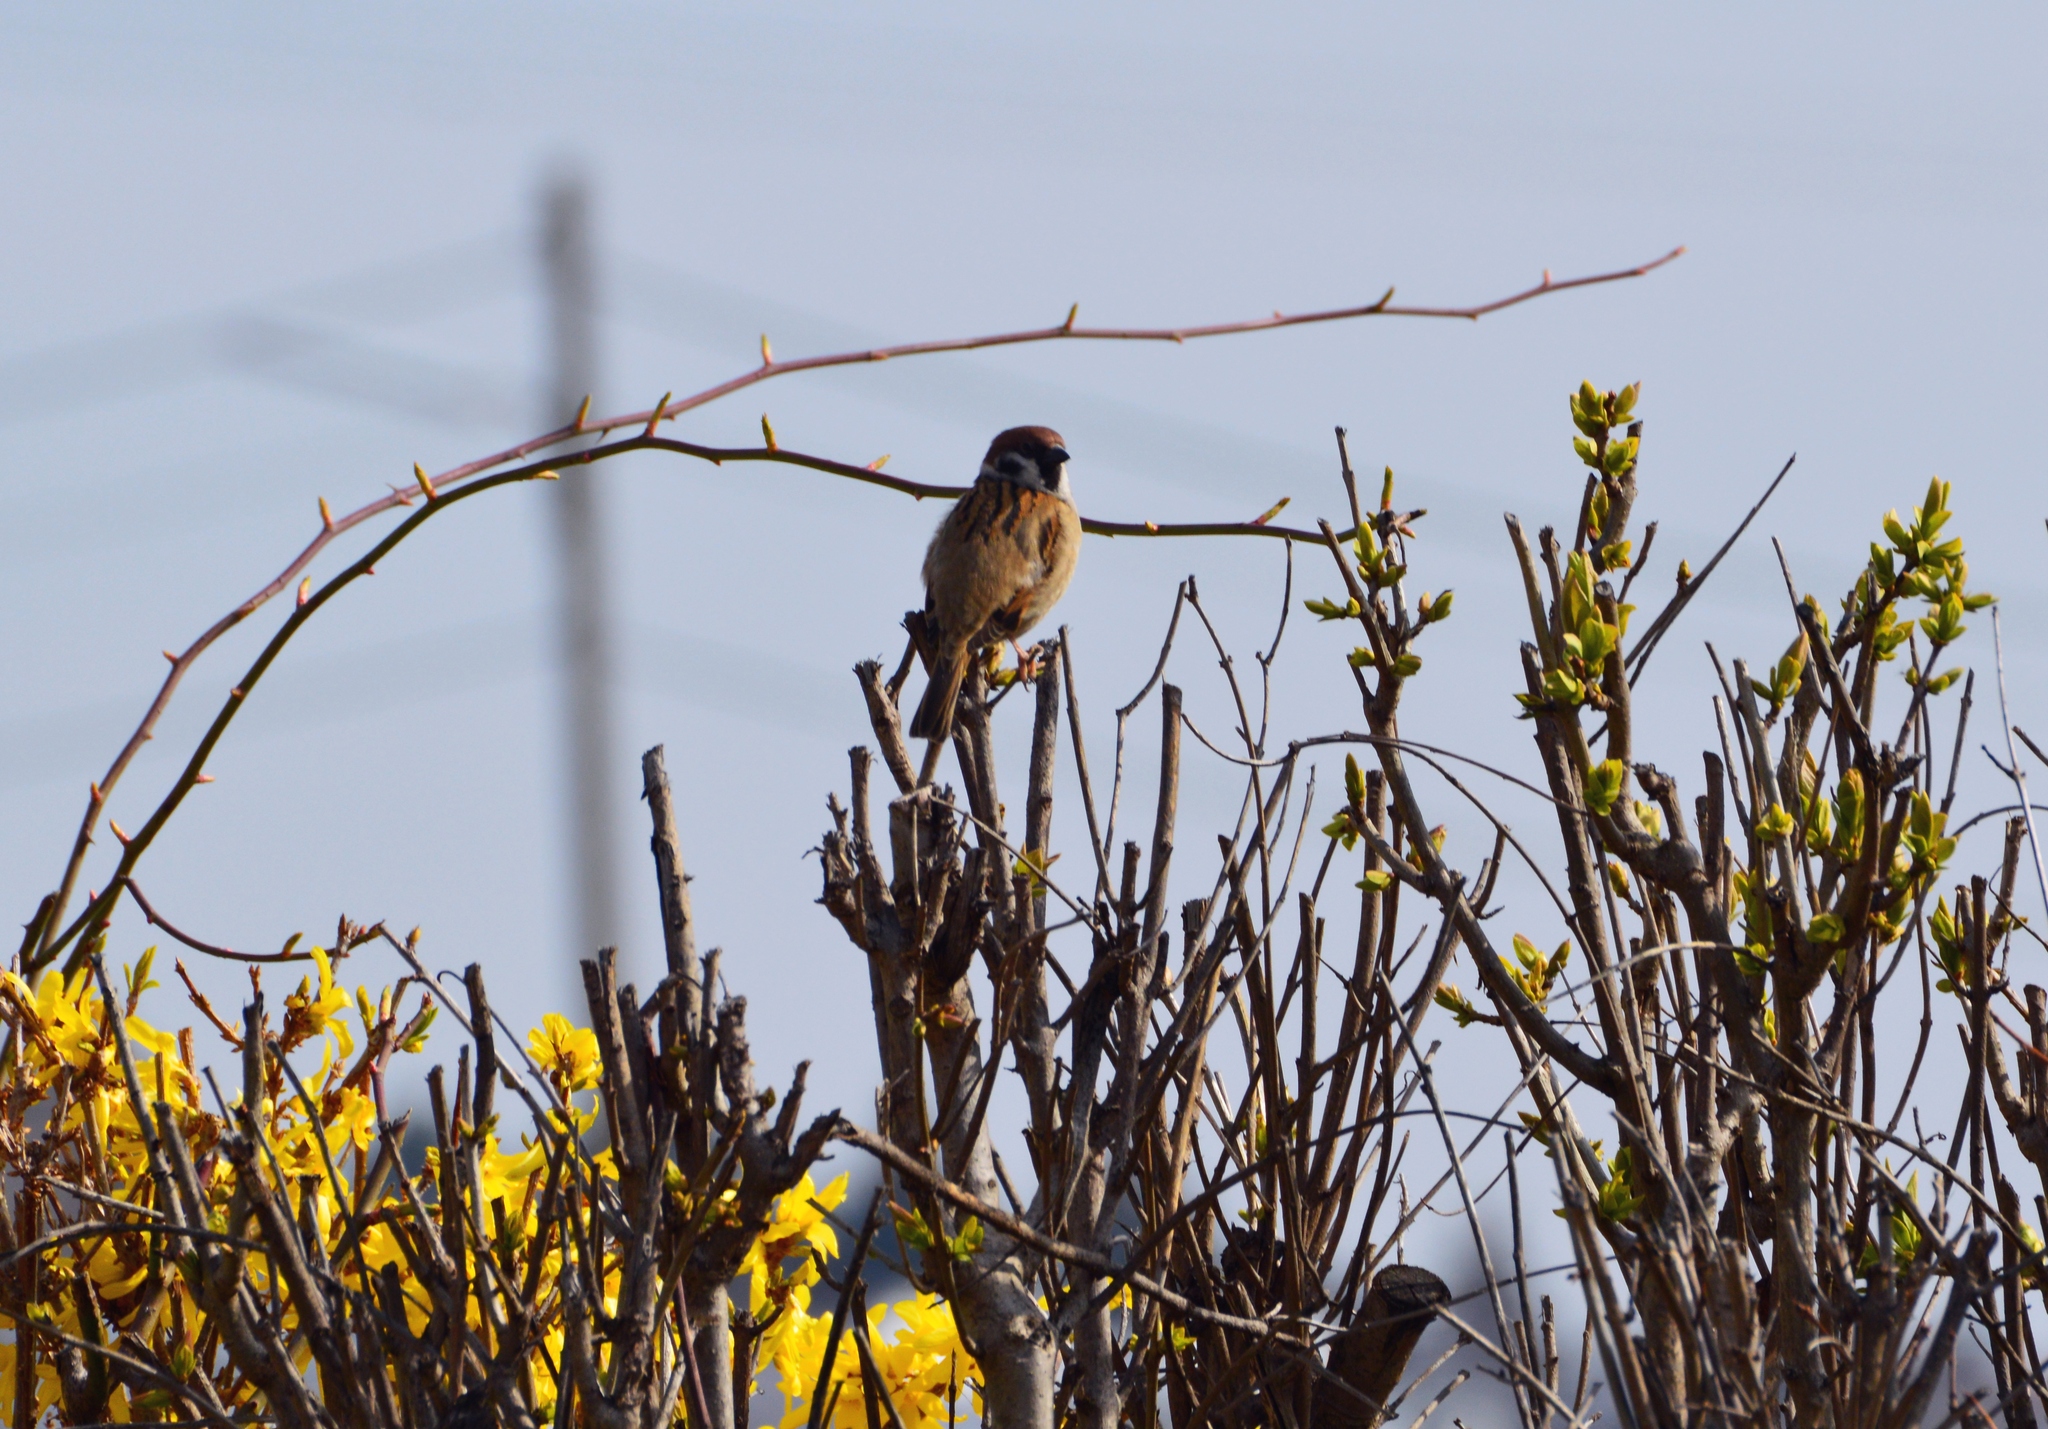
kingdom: Animalia
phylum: Chordata
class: Aves
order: Passeriformes
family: Passeridae
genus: Passer
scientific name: Passer montanus
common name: Eurasian tree sparrow
